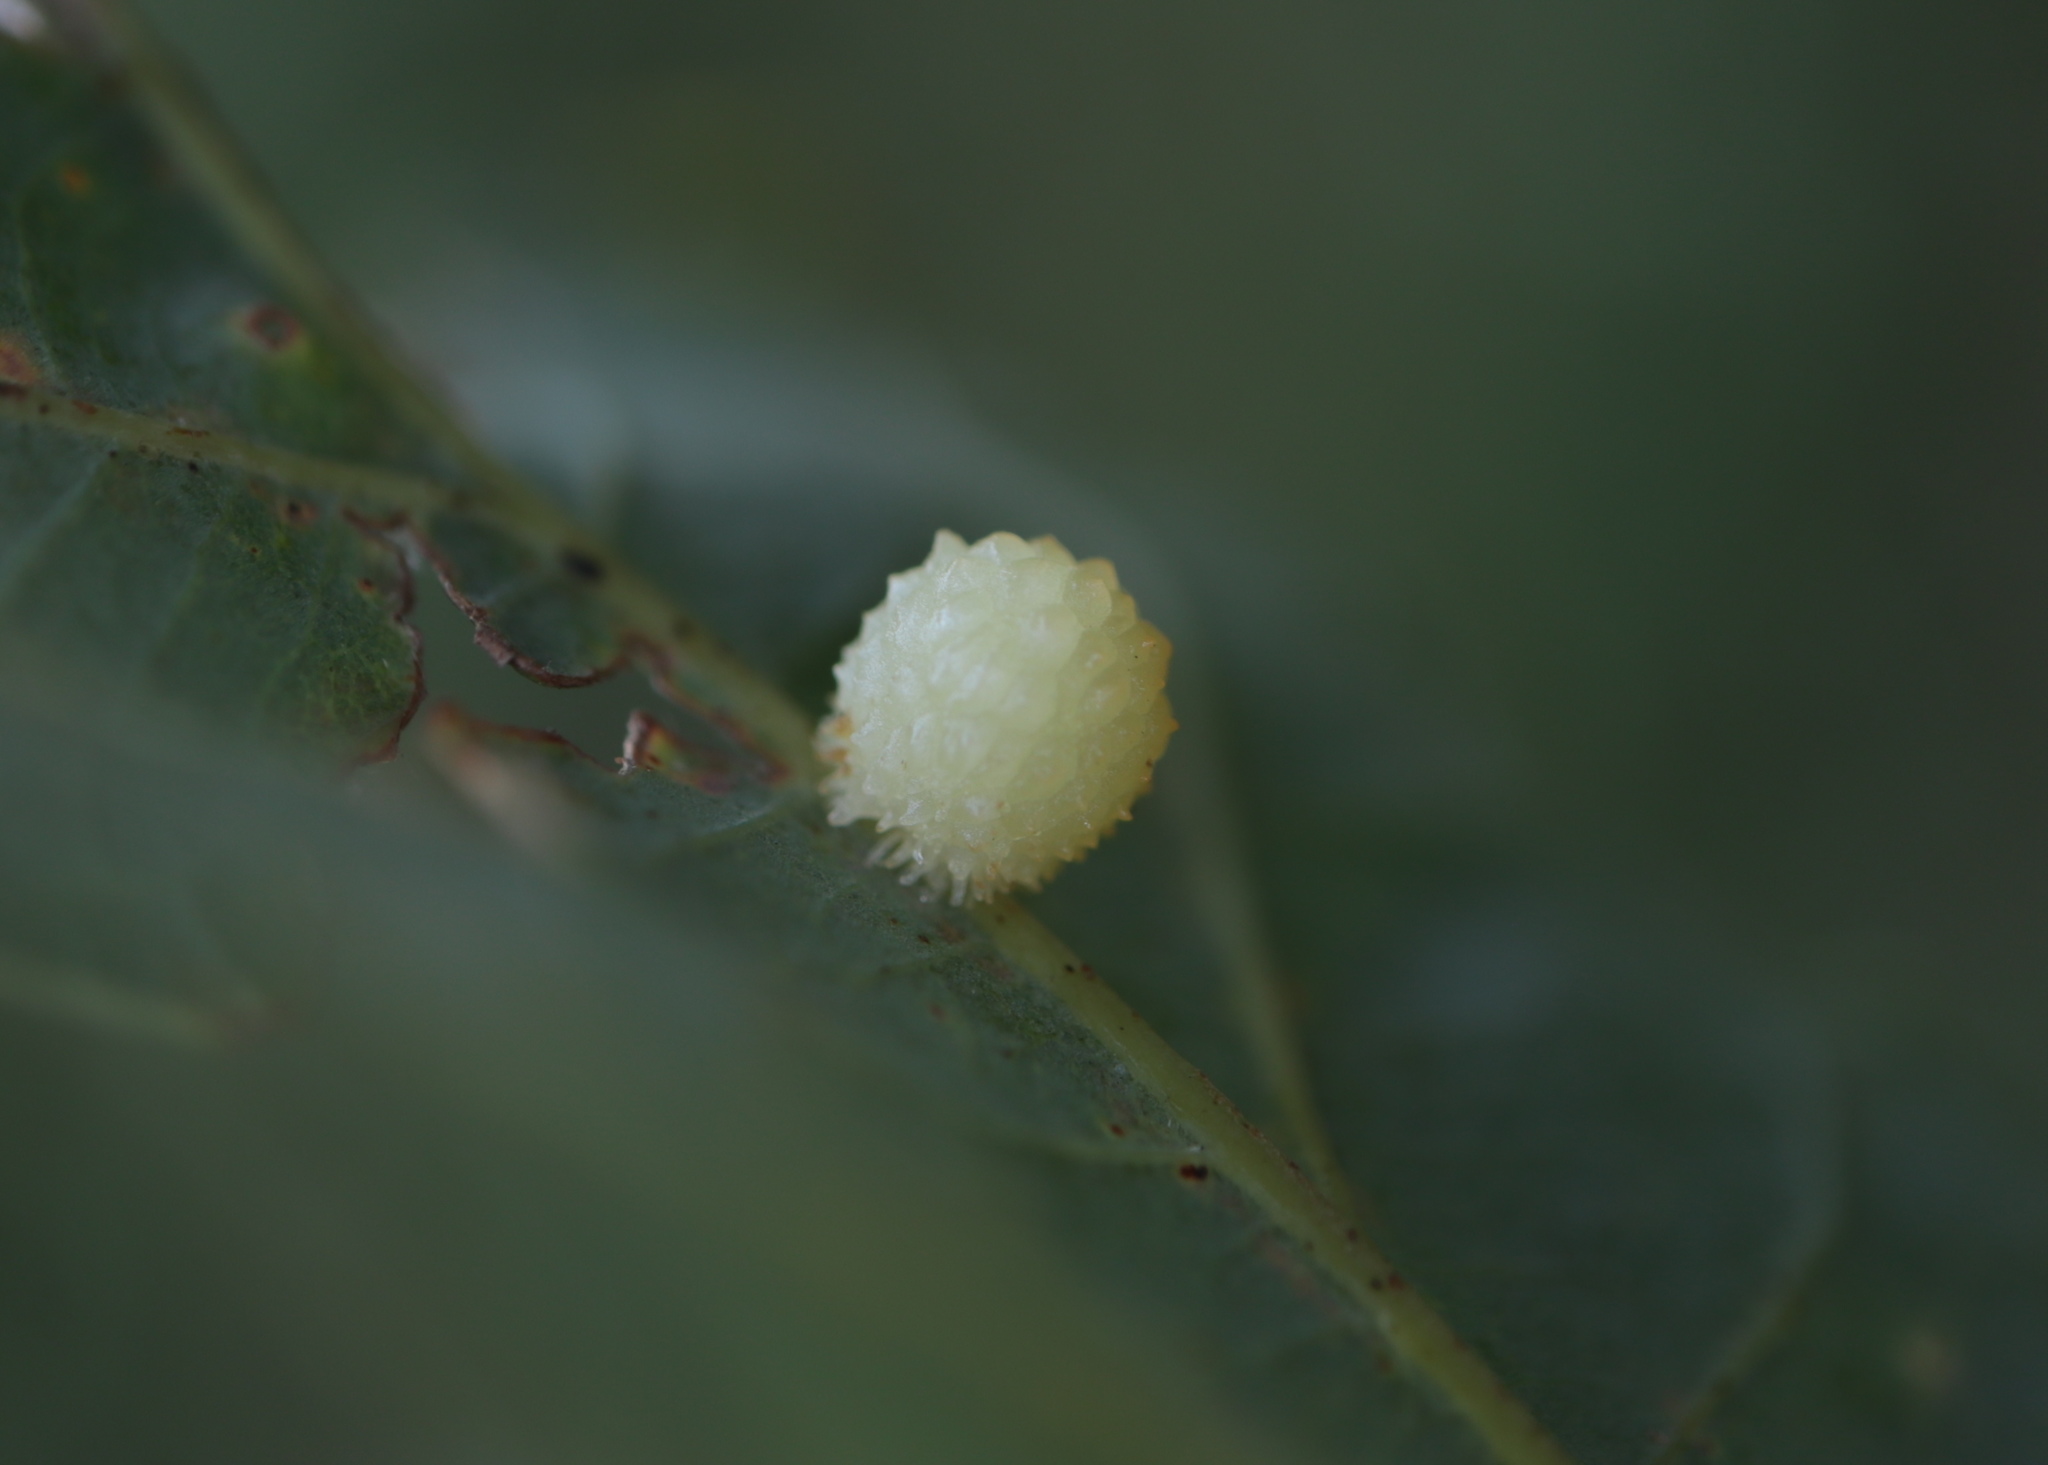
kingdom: Animalia
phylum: Arthropoda
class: Insecta
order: Hymenoptera
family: Cynipidae
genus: Acraspis
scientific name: Acraspis
